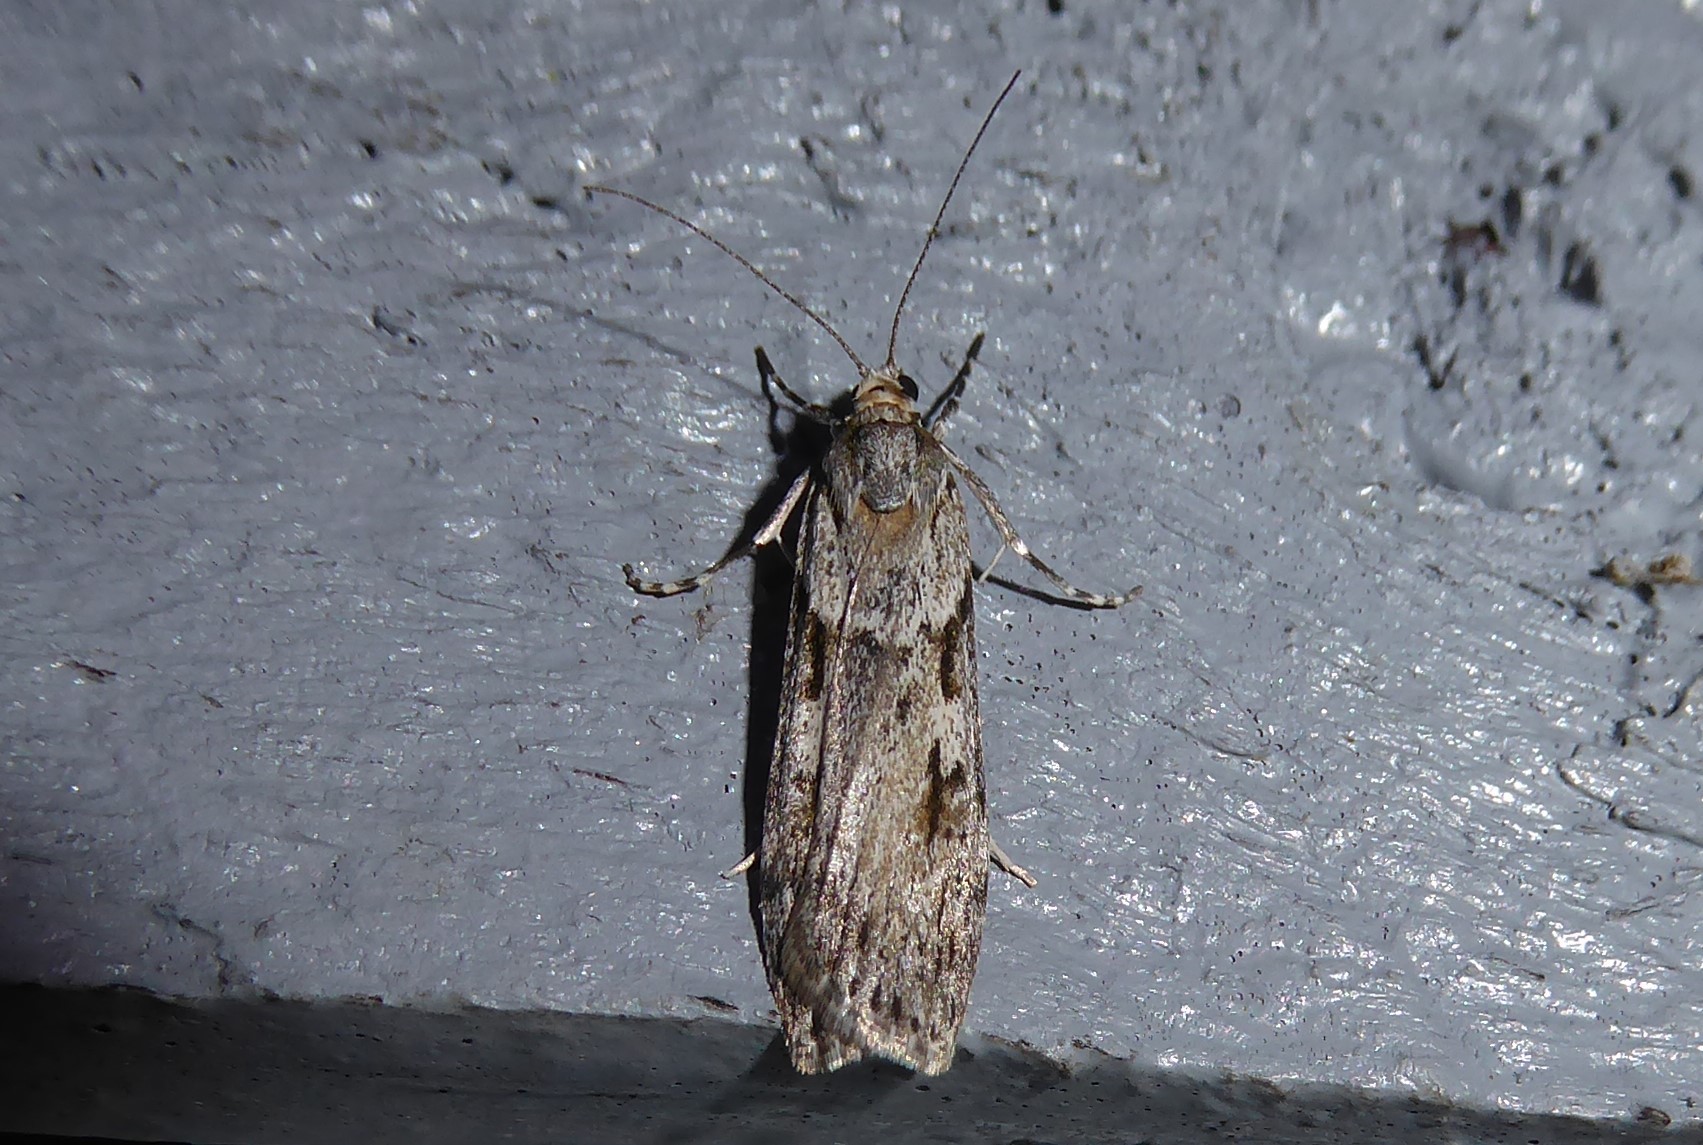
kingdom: Animalia
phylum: Arthropoda
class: Insecta
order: Lepidoptera
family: Crambidae
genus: Scoparia
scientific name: Scoparia halopis
